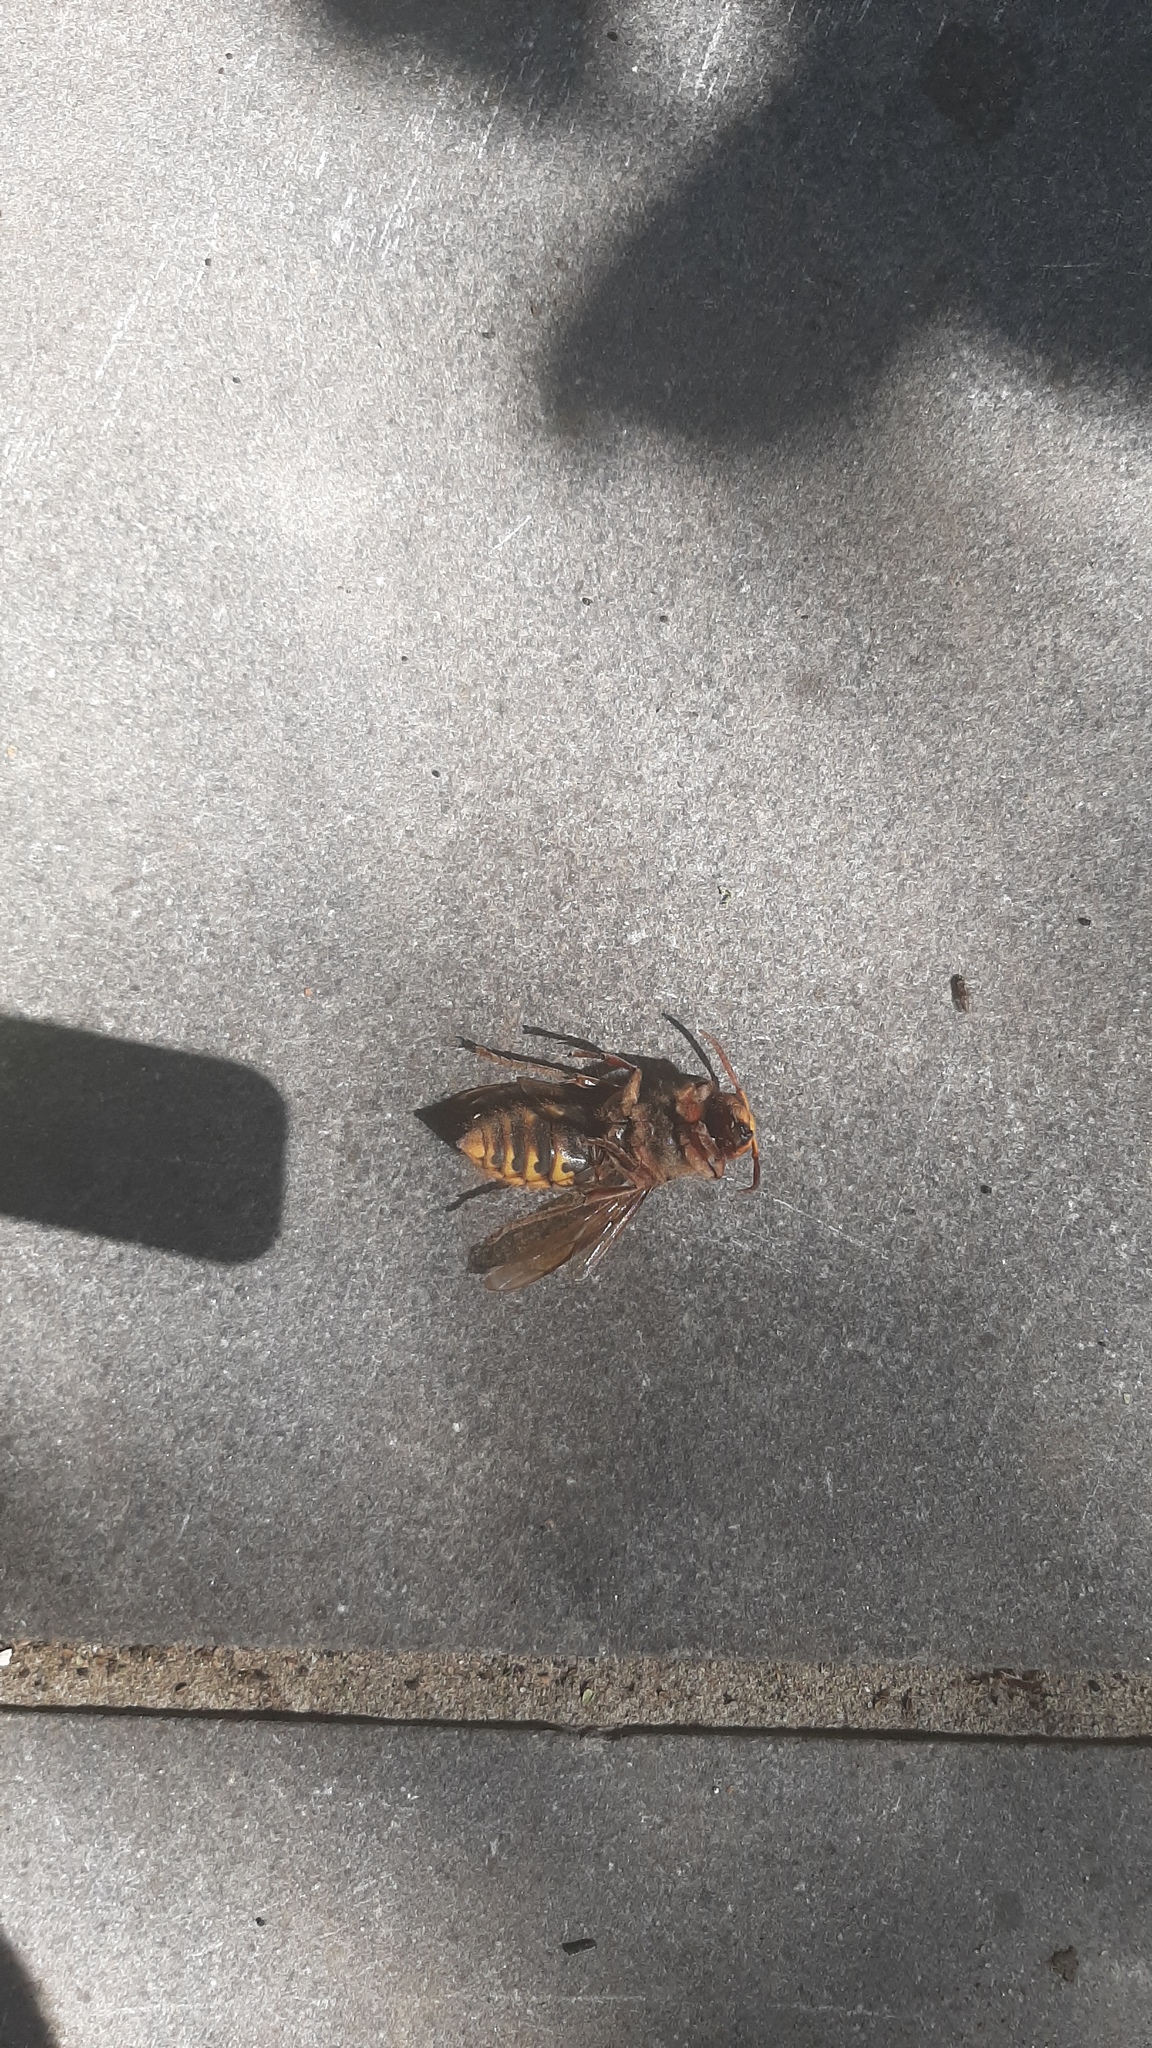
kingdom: Animalia
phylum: Arthropoda
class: Insecta
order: Hymenoptera
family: Vespidae
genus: Vespa
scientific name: Vespa crabro
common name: Hornet
